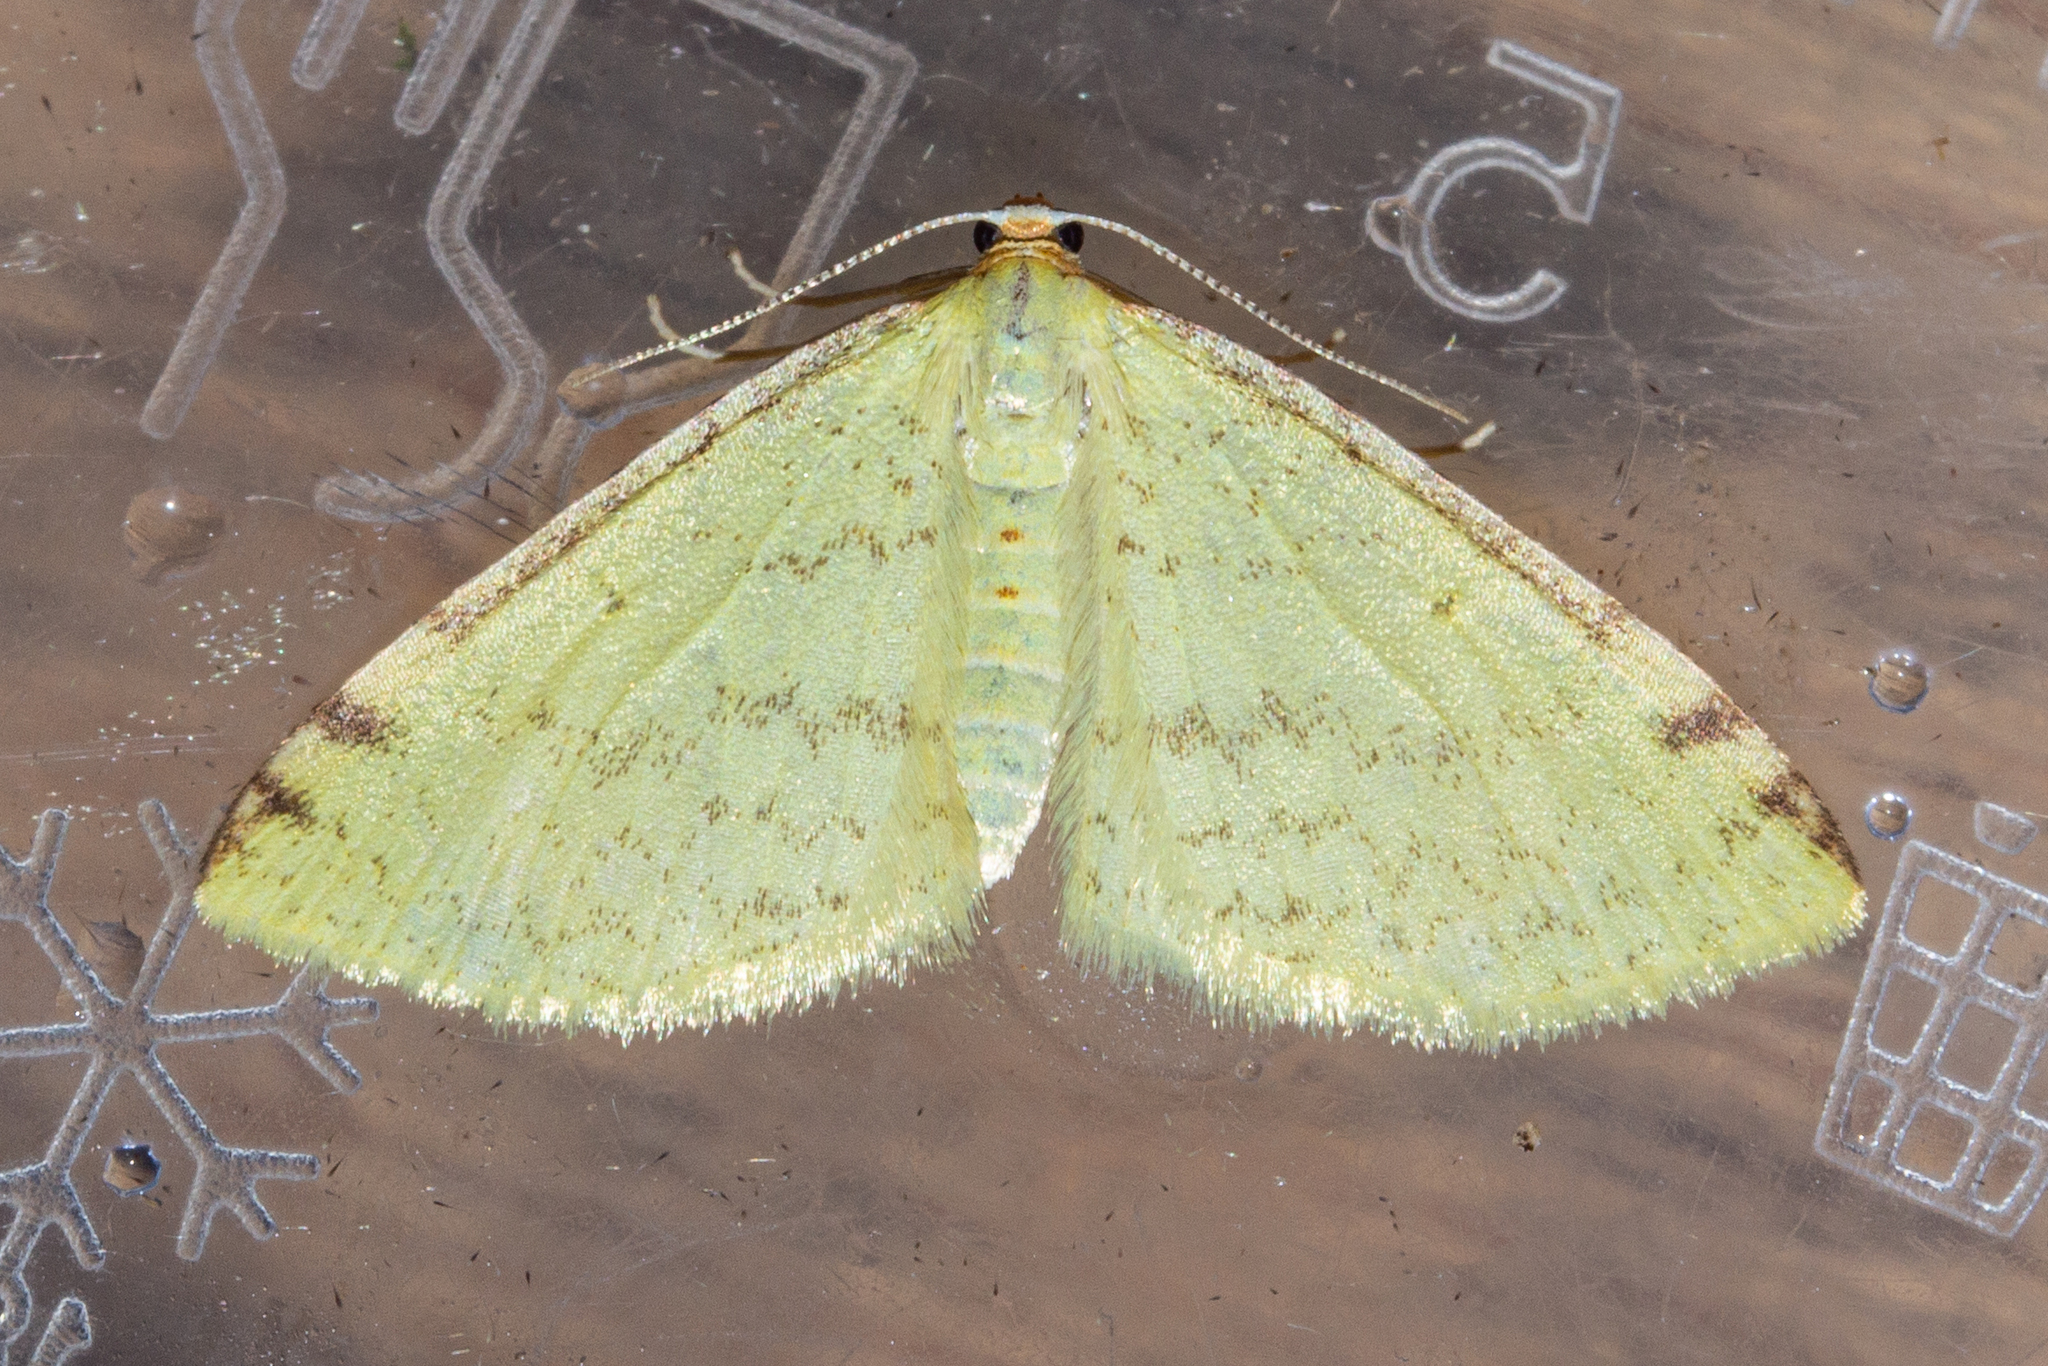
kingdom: Animalia
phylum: Arthropoda
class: Insecta
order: Lepidoptera
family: Geometridae
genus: Epiphryne
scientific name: Epiphryne undosata
